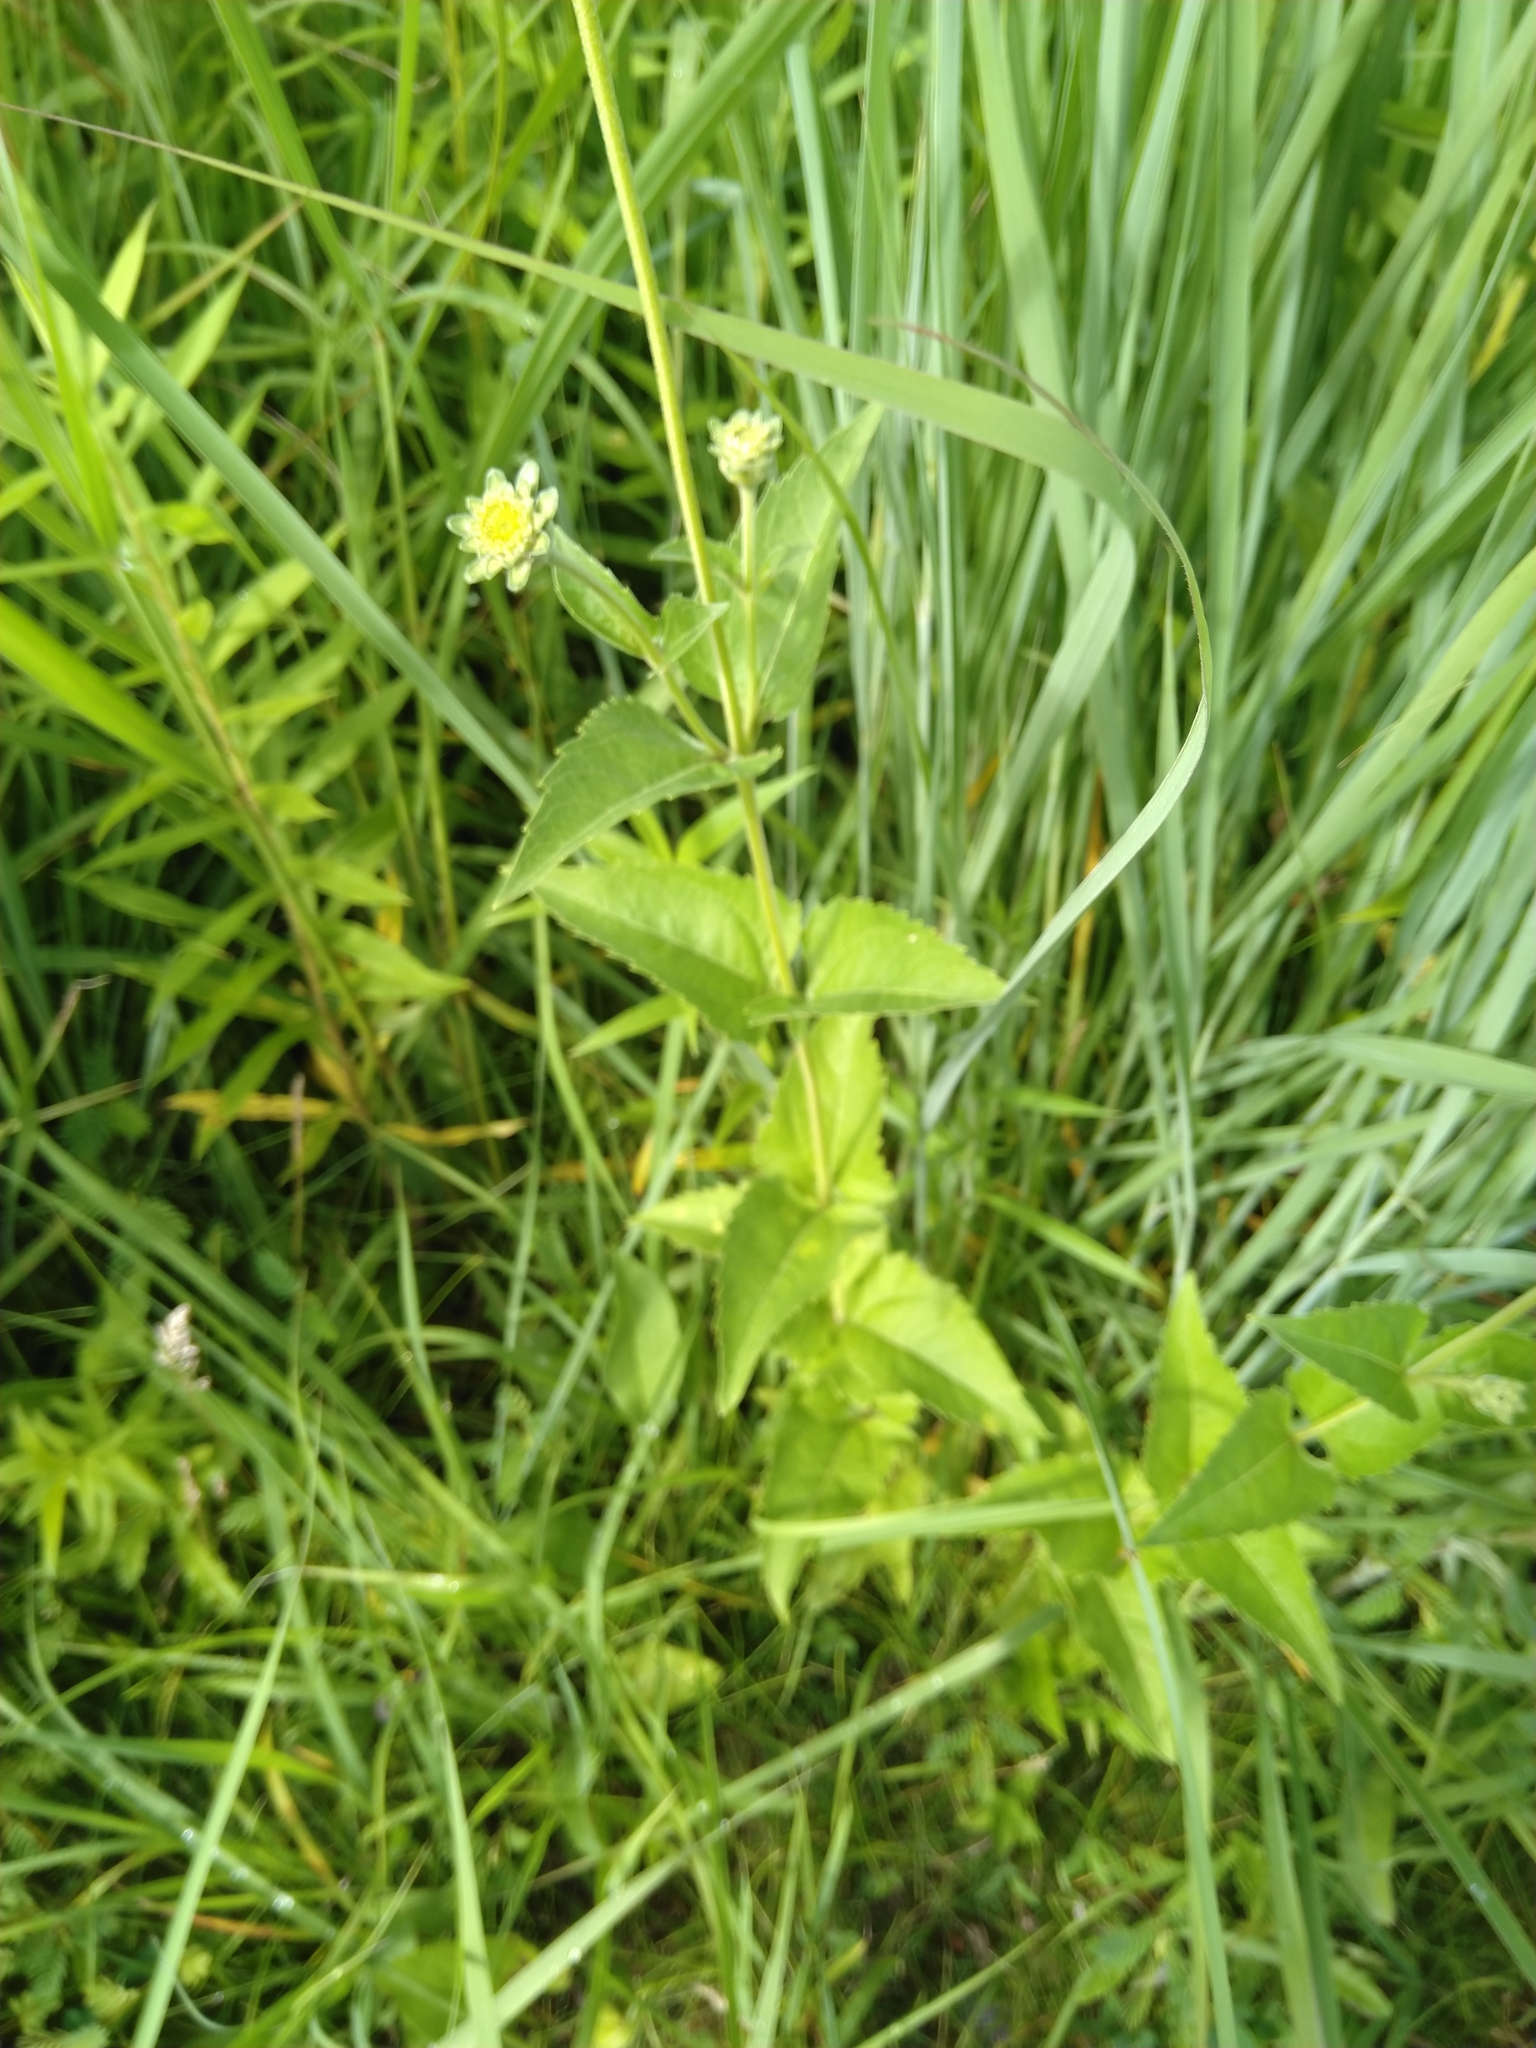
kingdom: Plantae
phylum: Tracheophyta
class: Magnoliopsida
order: Asterales
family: Asteraceae
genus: Heliopsis
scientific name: Heliopsis helianthoides
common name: False sunflower
